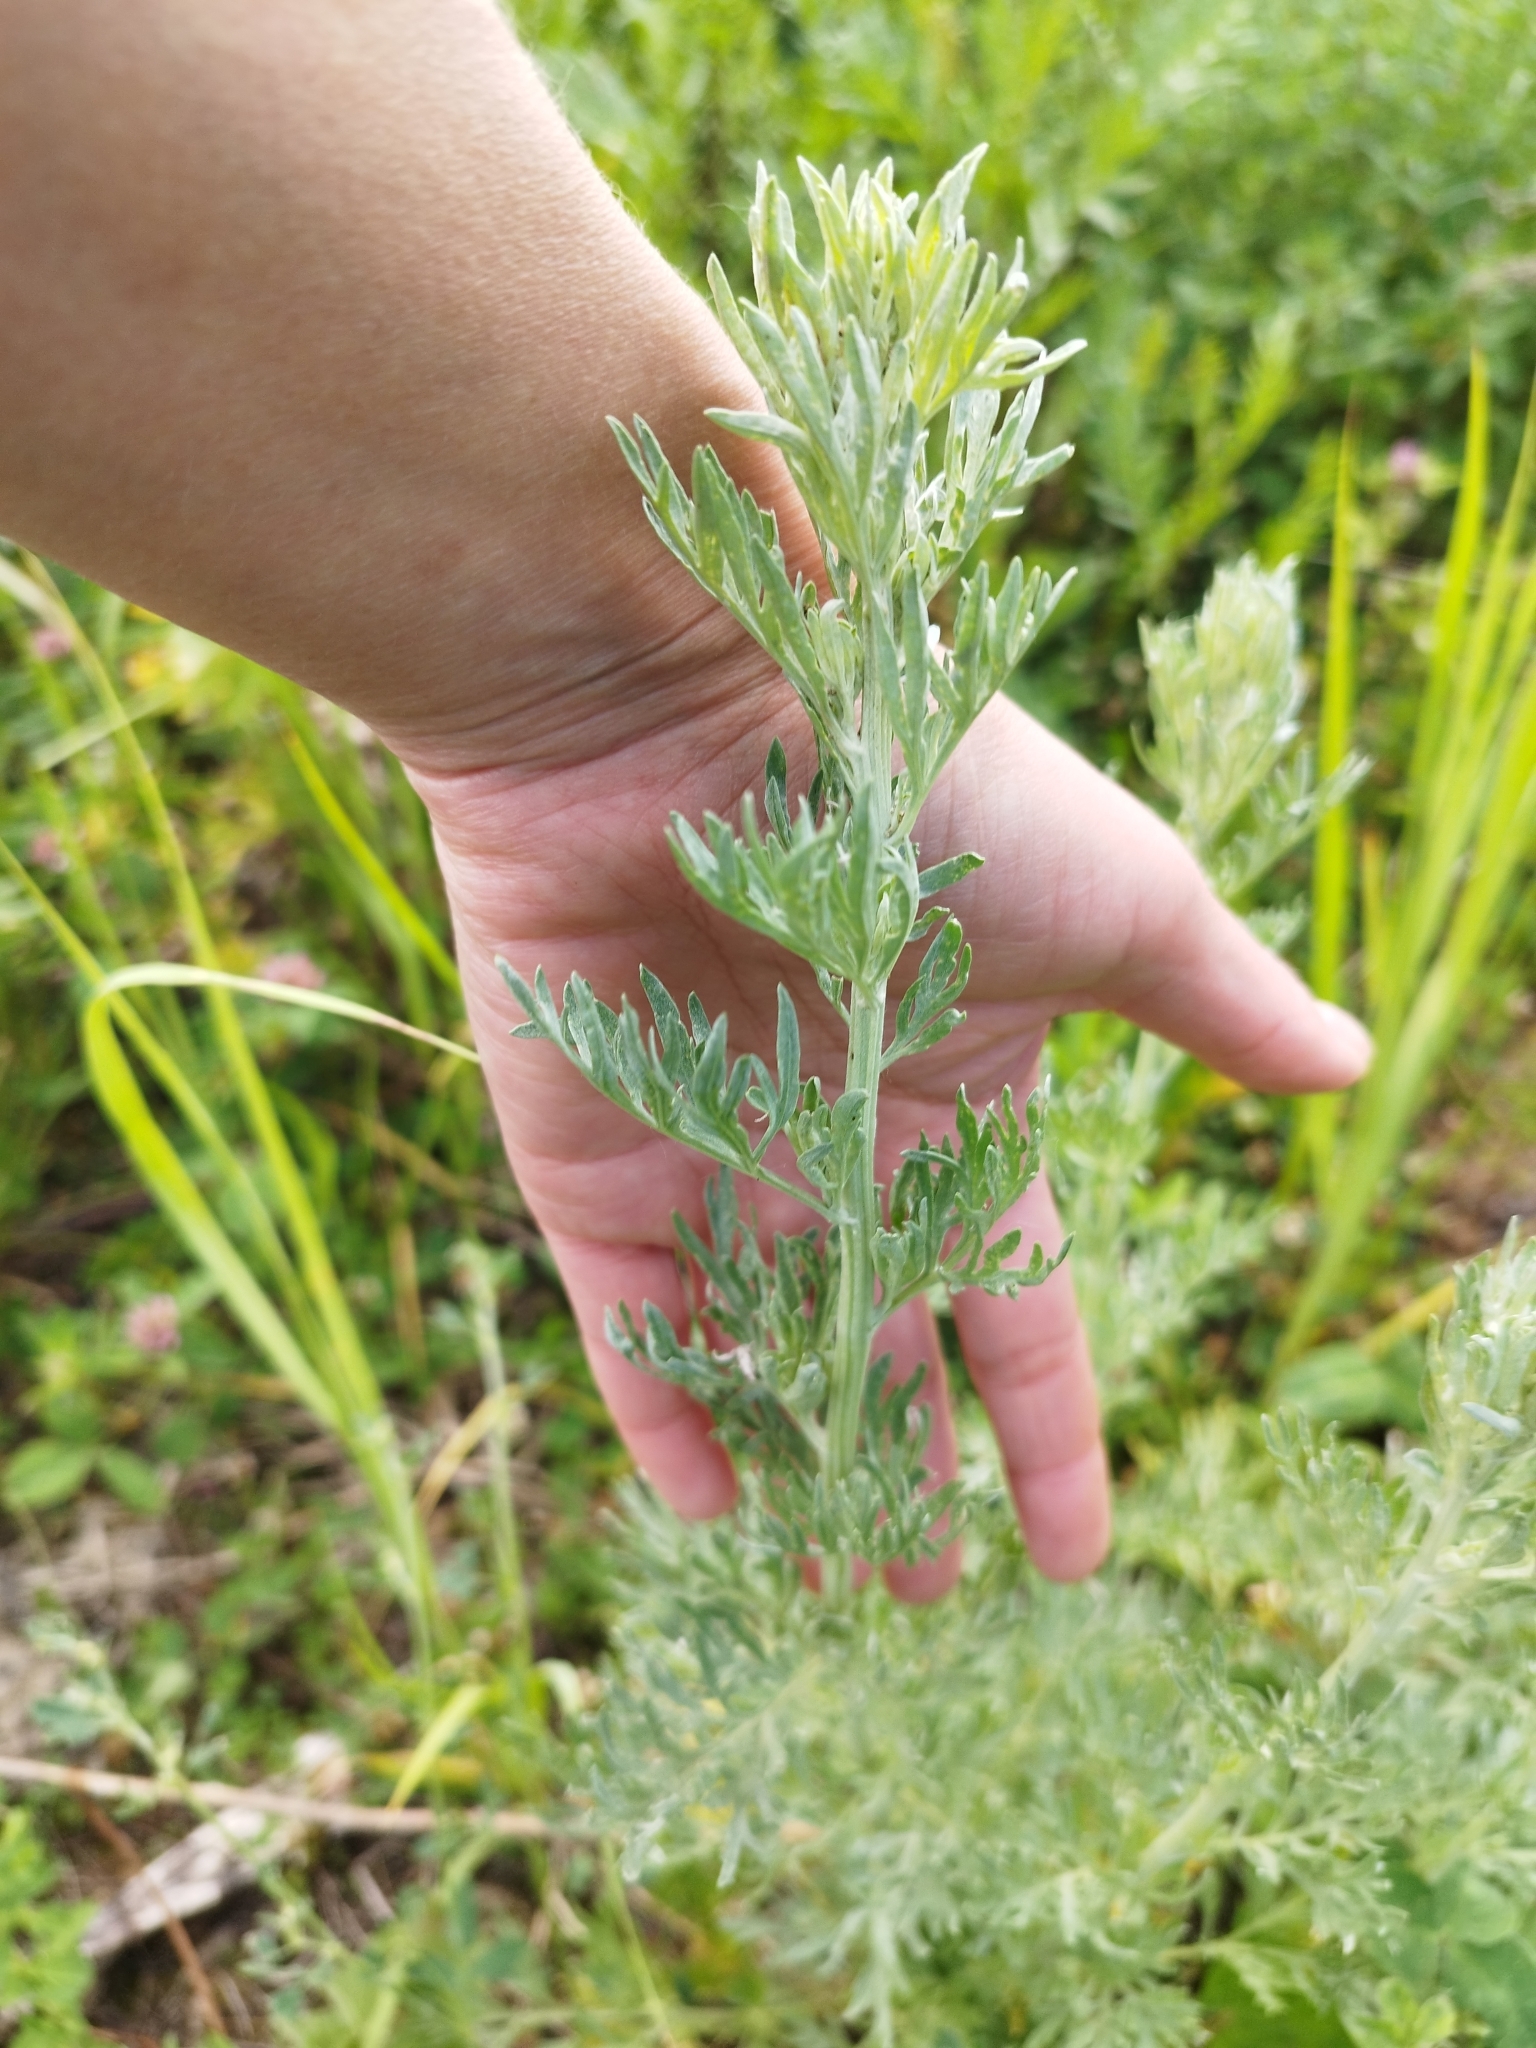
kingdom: Plantae
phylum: Tracheophyta
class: Magnoliopsida
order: Asterales
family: Asteraceae
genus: Artemisia
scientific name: Artemisia absinthium
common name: Wormwood
